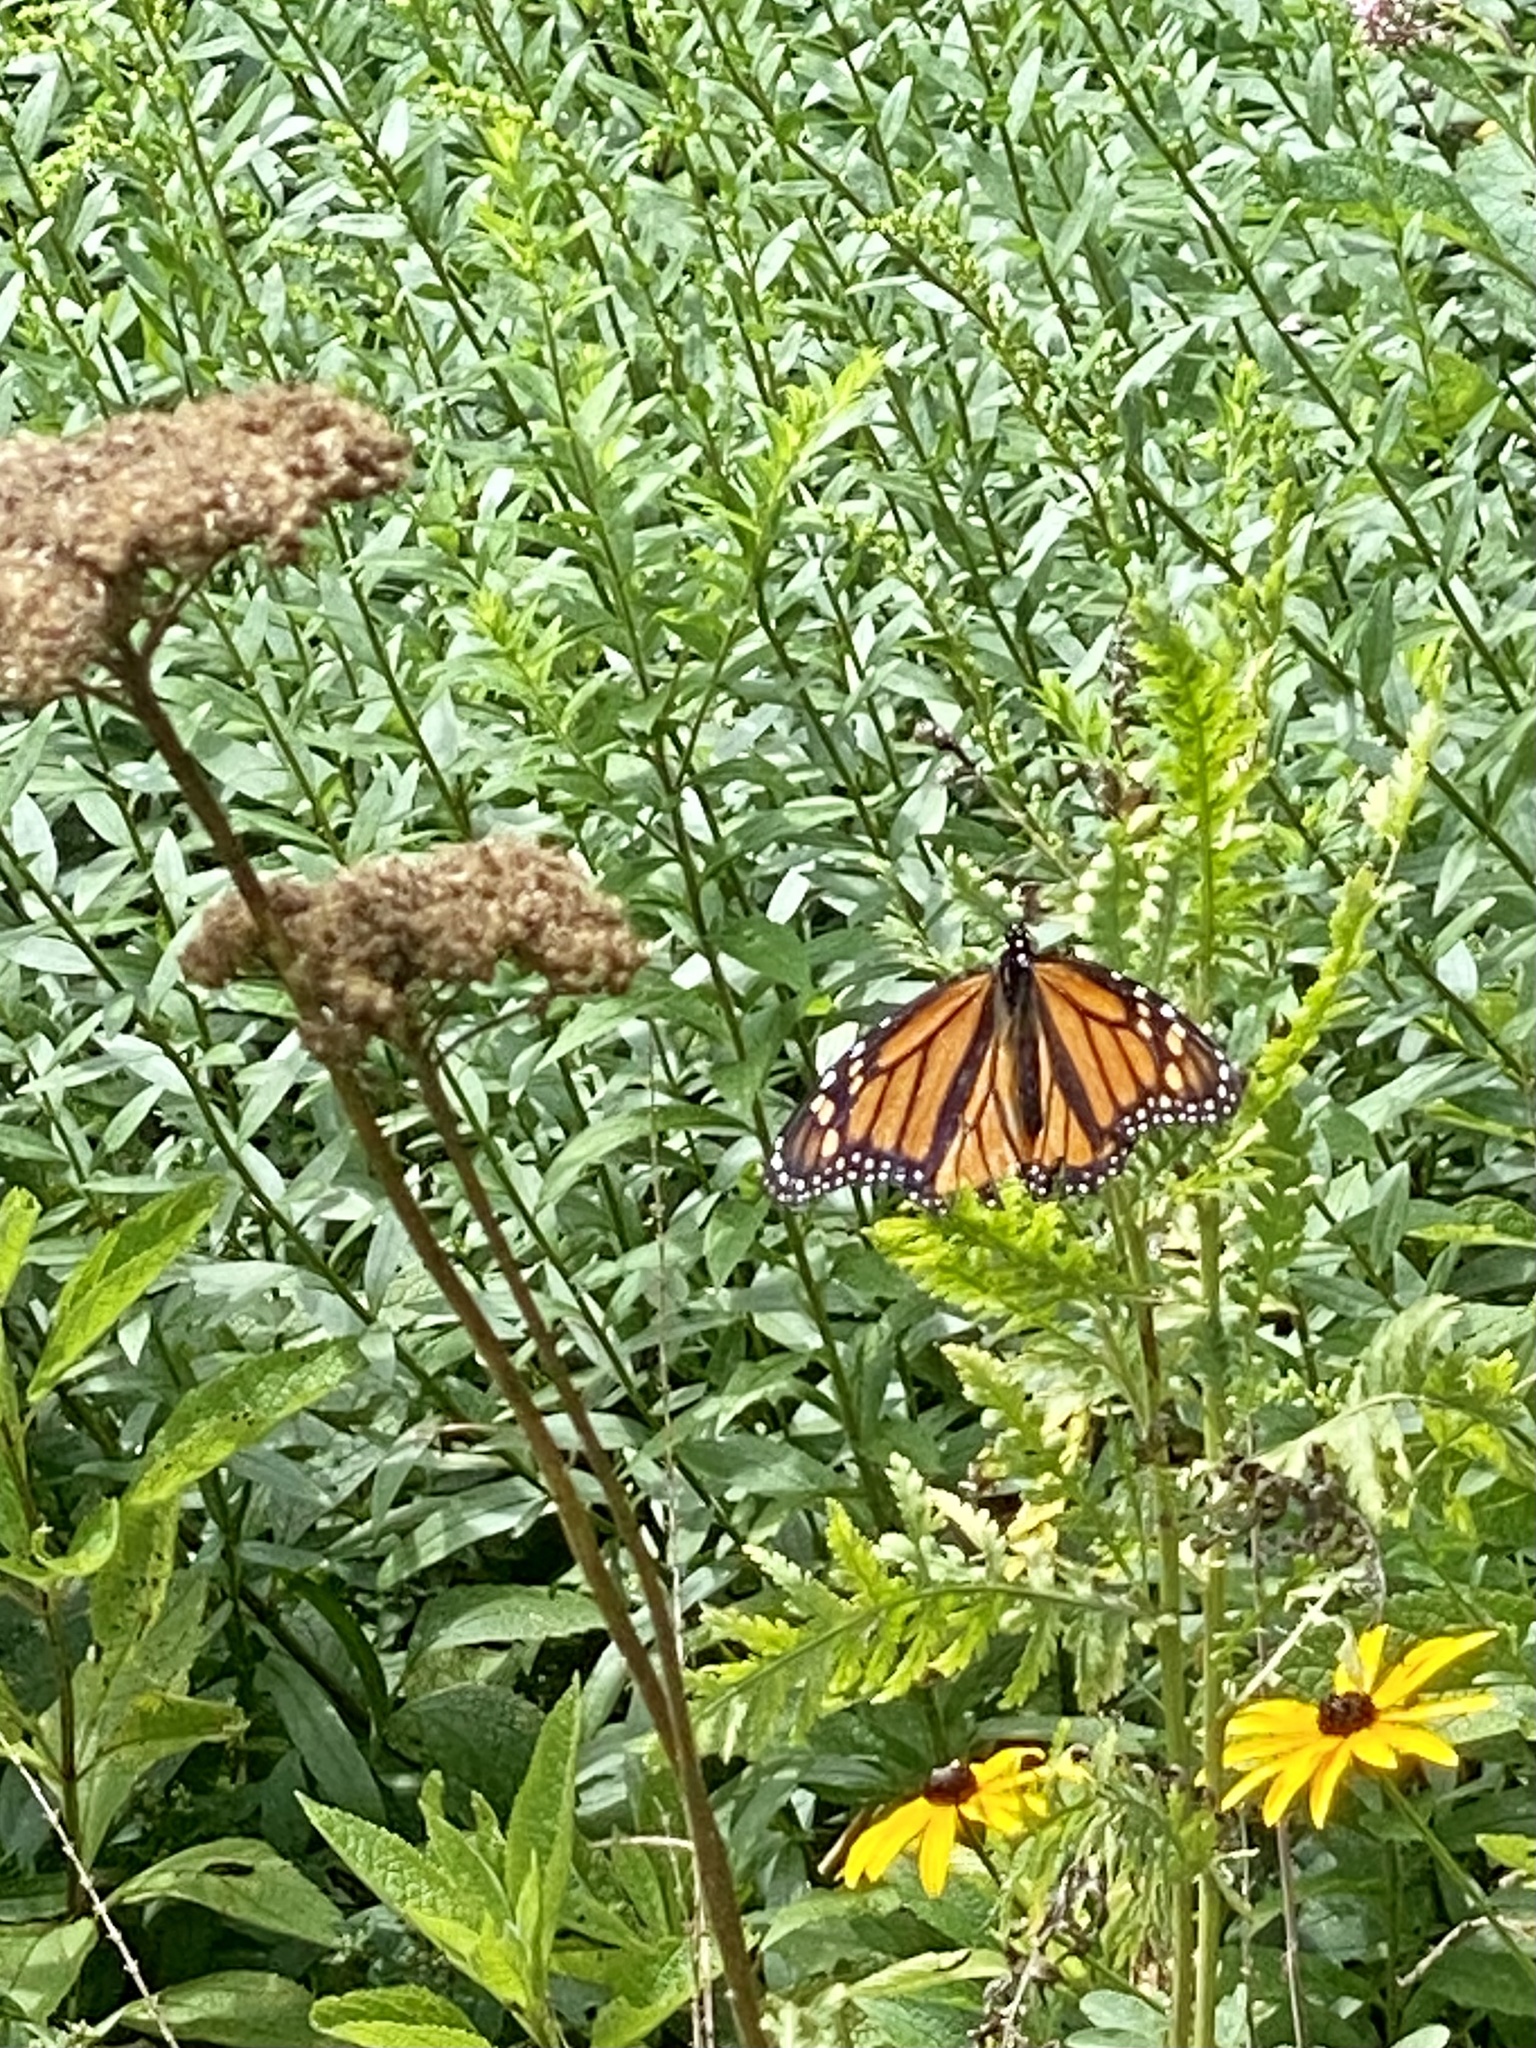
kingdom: Animalia
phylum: Arthropoda
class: Insecta
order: Lepidoptera
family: Nymphalidae
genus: Danaus
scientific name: Danaus plexippus
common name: Monarch
